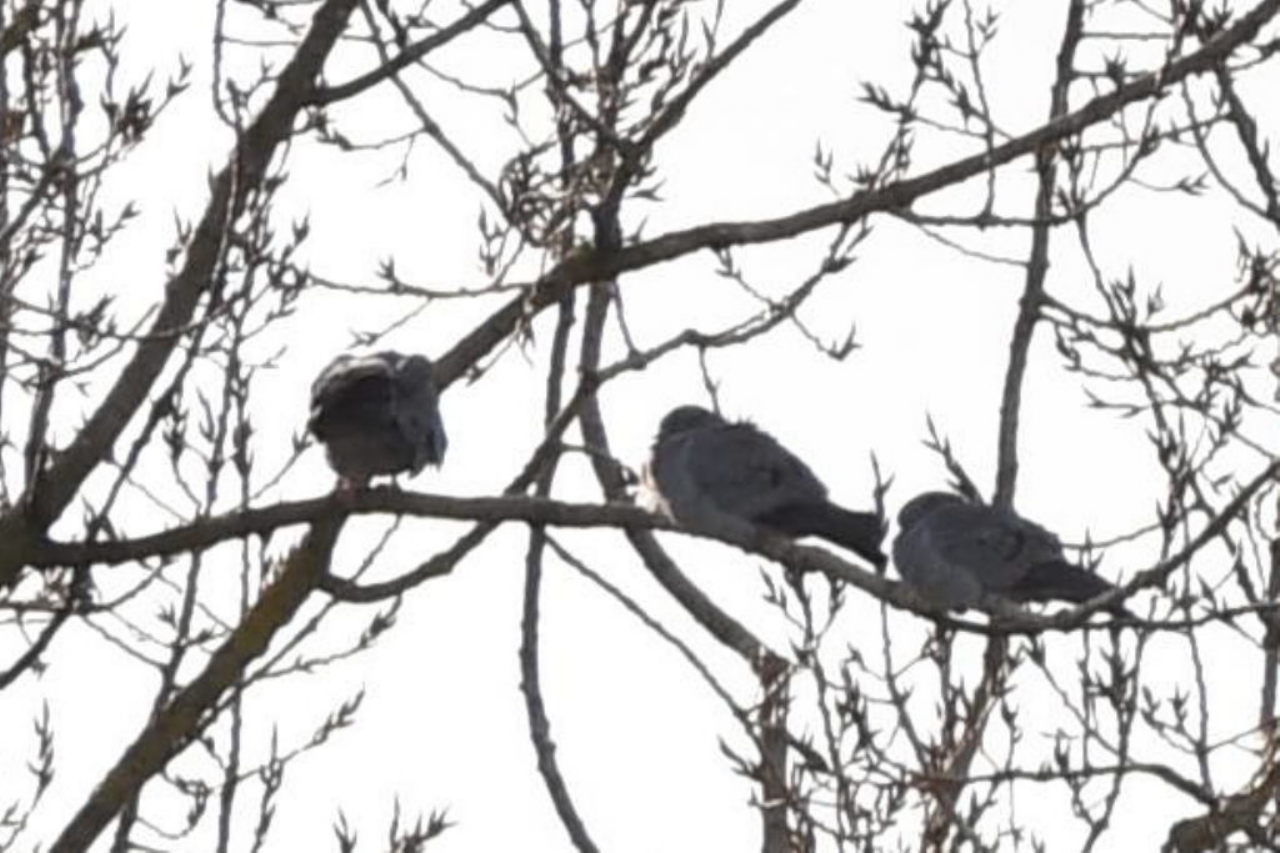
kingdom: Animalia
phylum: Chordata
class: Aves
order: Columbiformes
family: Columbidae
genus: Columba
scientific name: Columba palumbus
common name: Common wood pigeon
